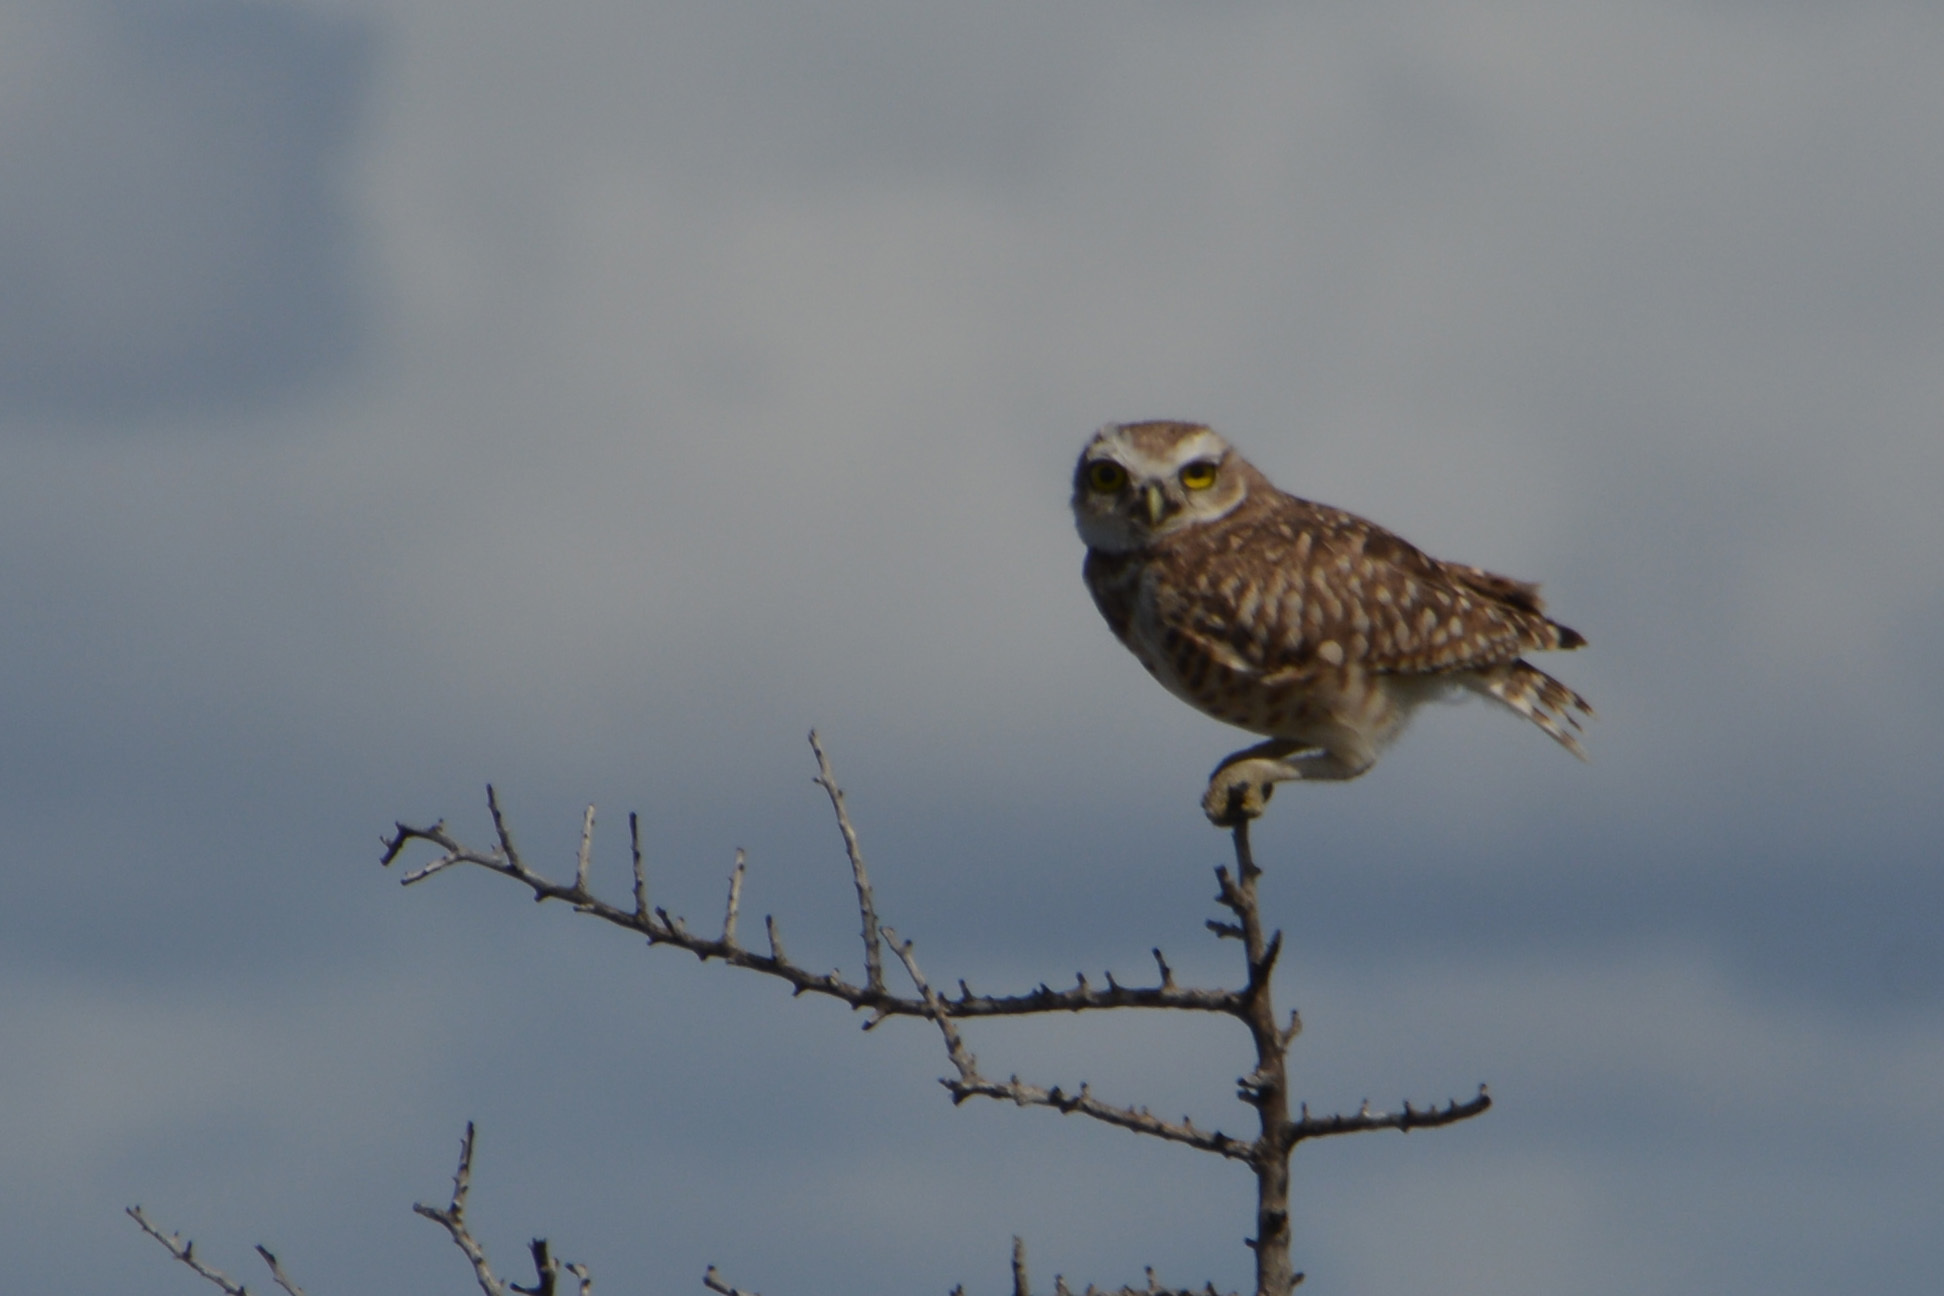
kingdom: Animalia
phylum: Chordata
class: Aves
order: Strigiformes
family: Strigidae
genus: Athene
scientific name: Athene cunicularia
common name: Burrowing owl
